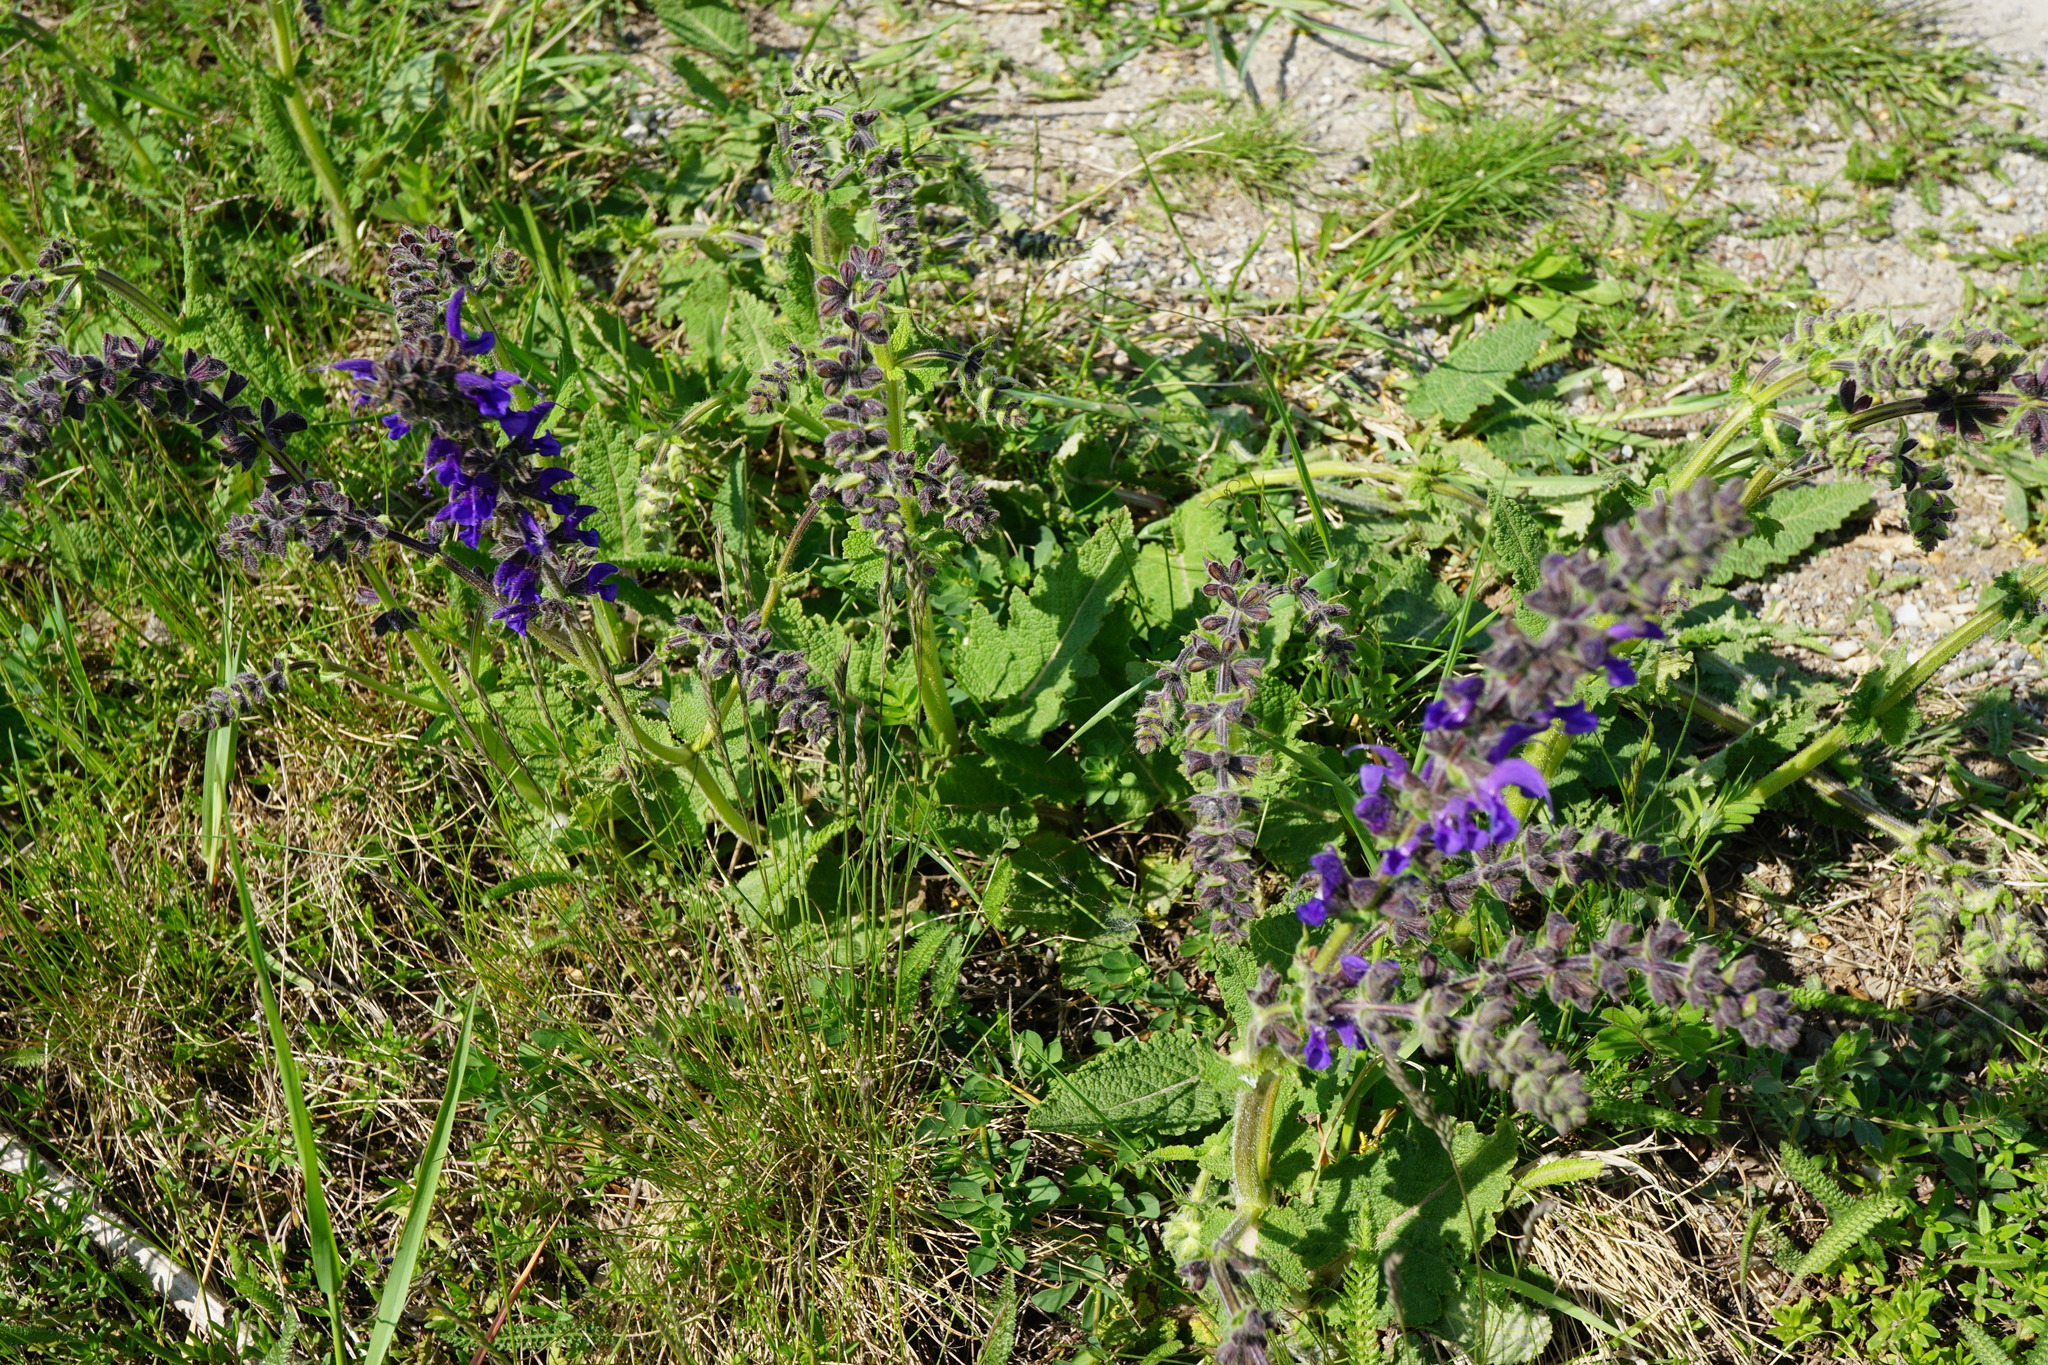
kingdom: Plantae
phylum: Tracheophyta
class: Magnoliopsida
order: Lamiales
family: Lamiaceae
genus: Salvia
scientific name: Salvia pratensis
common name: Meadow sage
